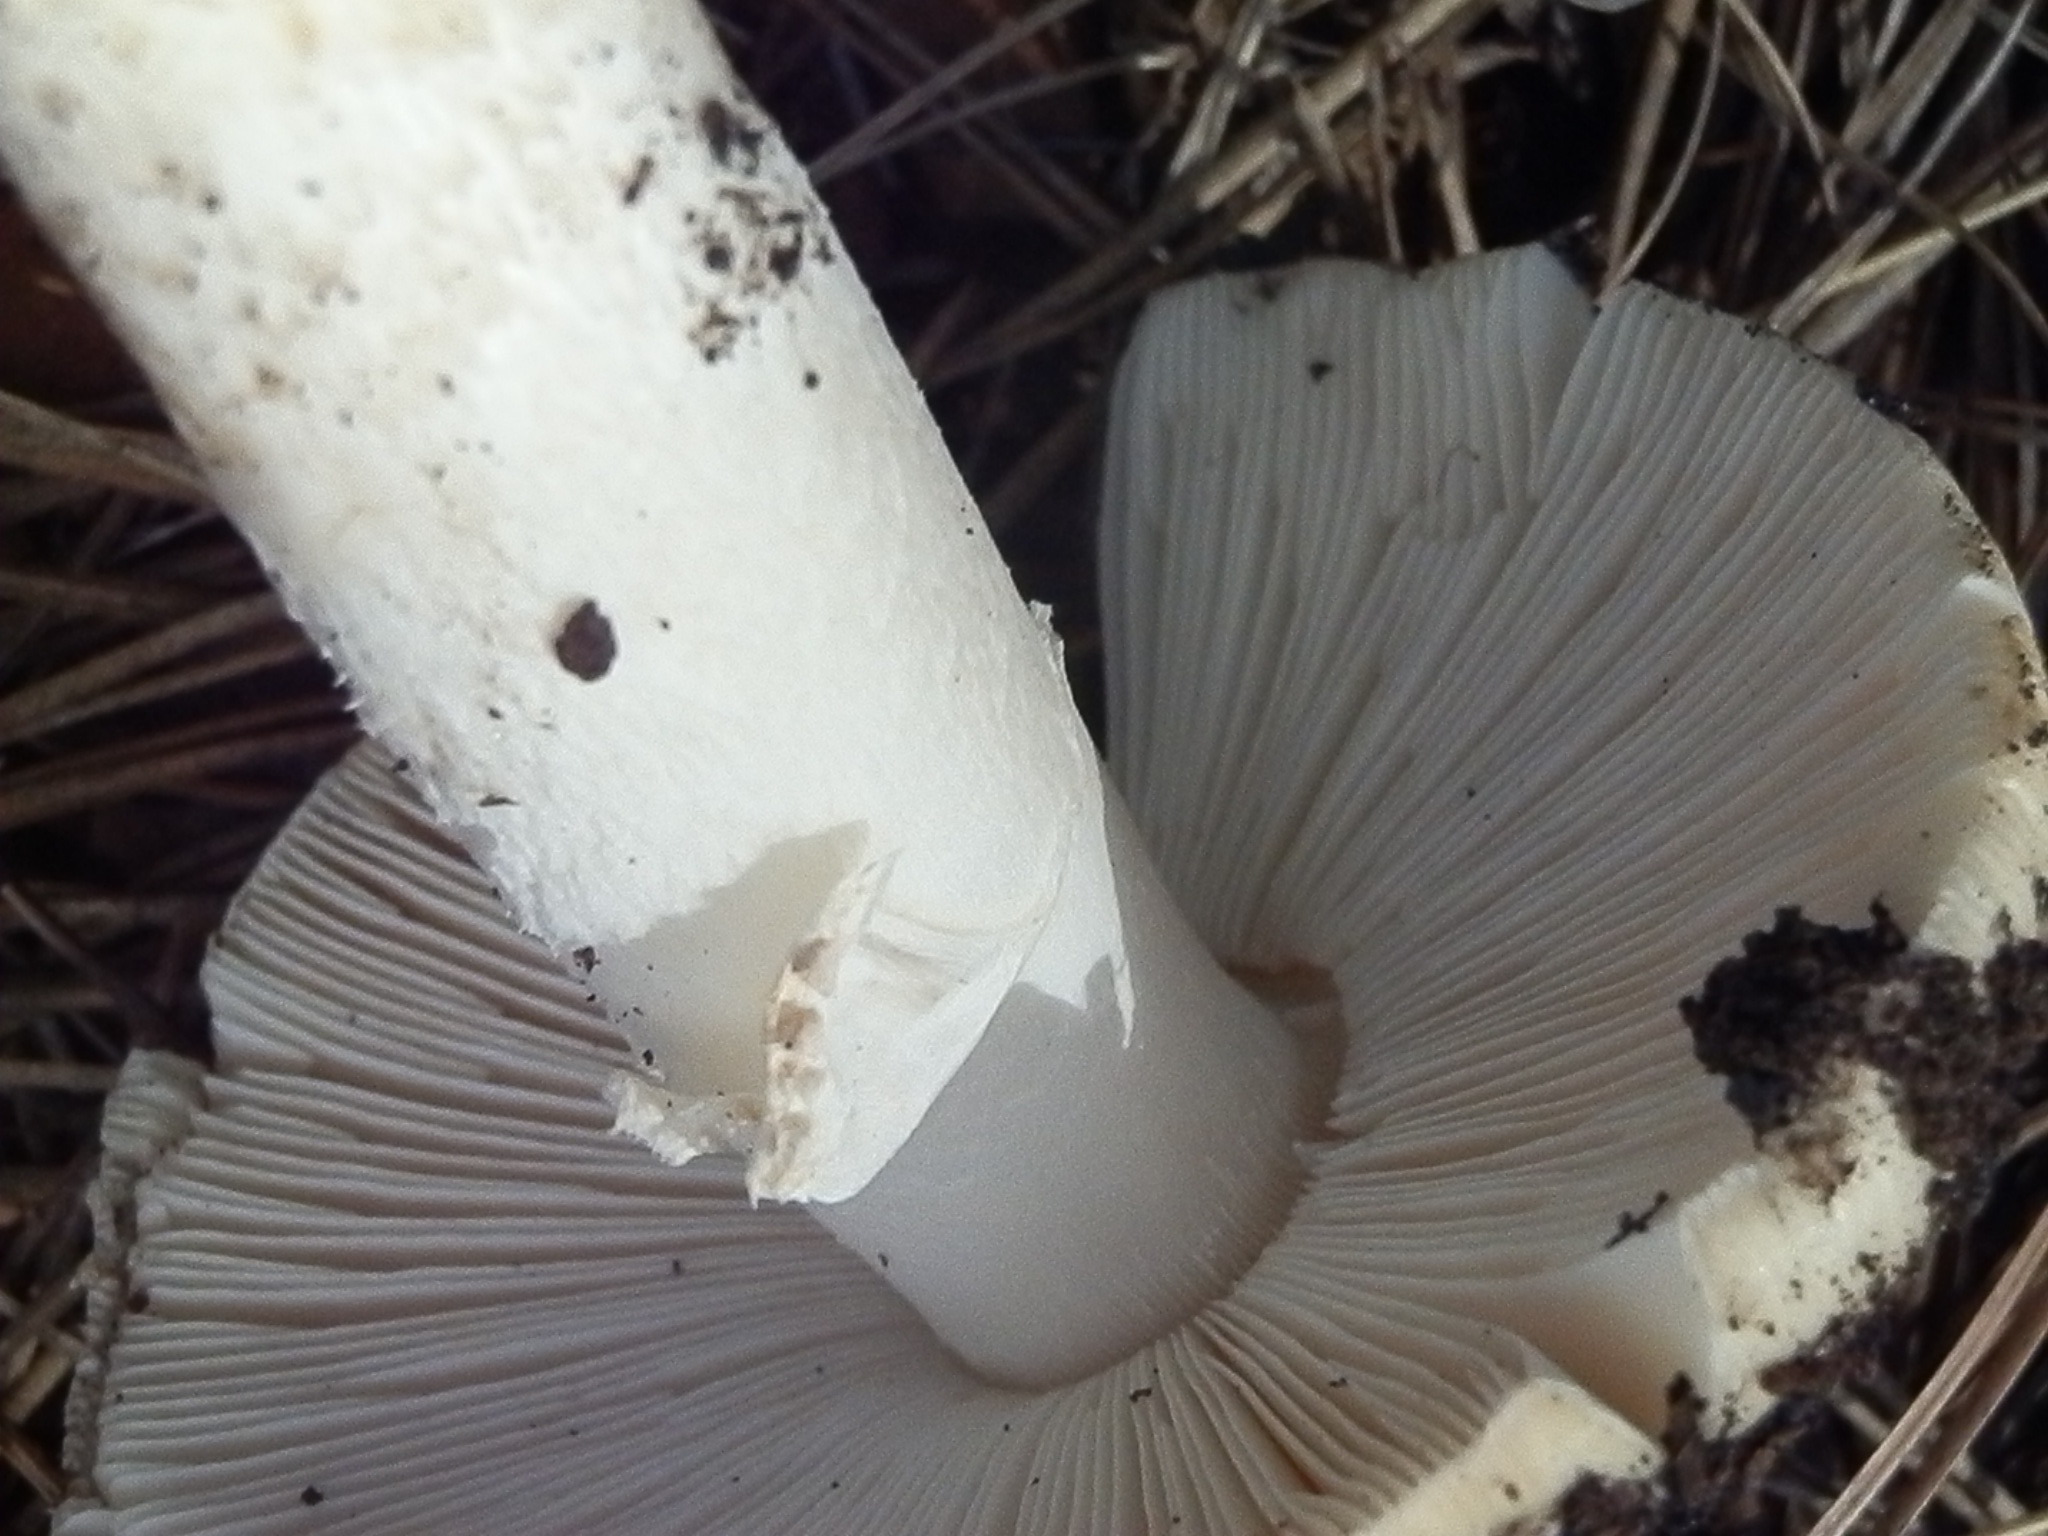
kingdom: Fungi
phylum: Basidiomycota
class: Agaricomycetes
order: Agaricales
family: Amanitaceae
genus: Amanita
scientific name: Amanita gemmata
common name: Jewelled amanita
